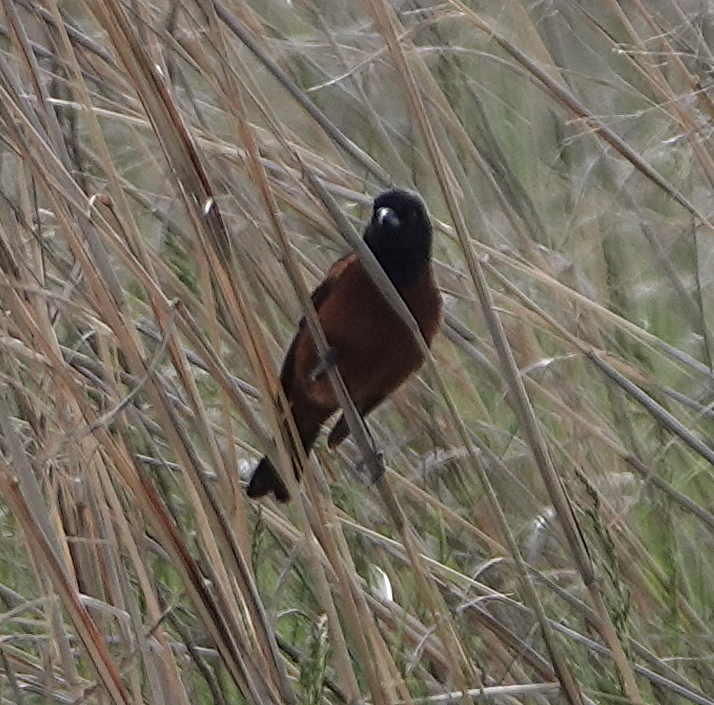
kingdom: Animalia
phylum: Chordata
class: Aves
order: Passeriformes
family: Icteridae
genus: Icterus
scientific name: Icterus spurius
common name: Orchard oriole
